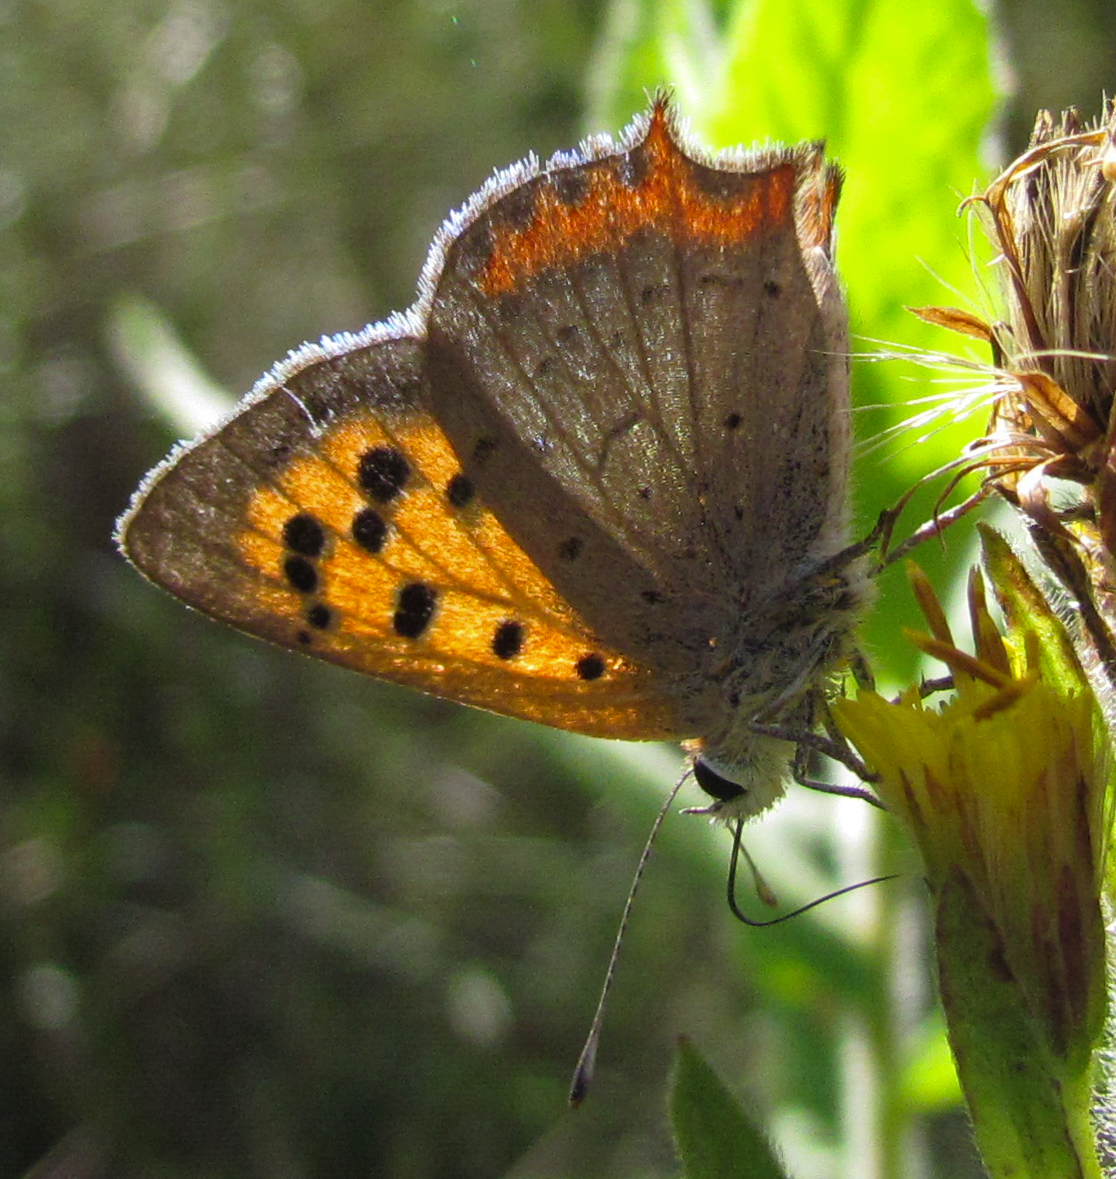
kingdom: Animalia
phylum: Arthropoda
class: Insecta
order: Lepidoptera
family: Lycaenidae
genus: Lycaena
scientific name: Lycaena phlaeas
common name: Small copper
